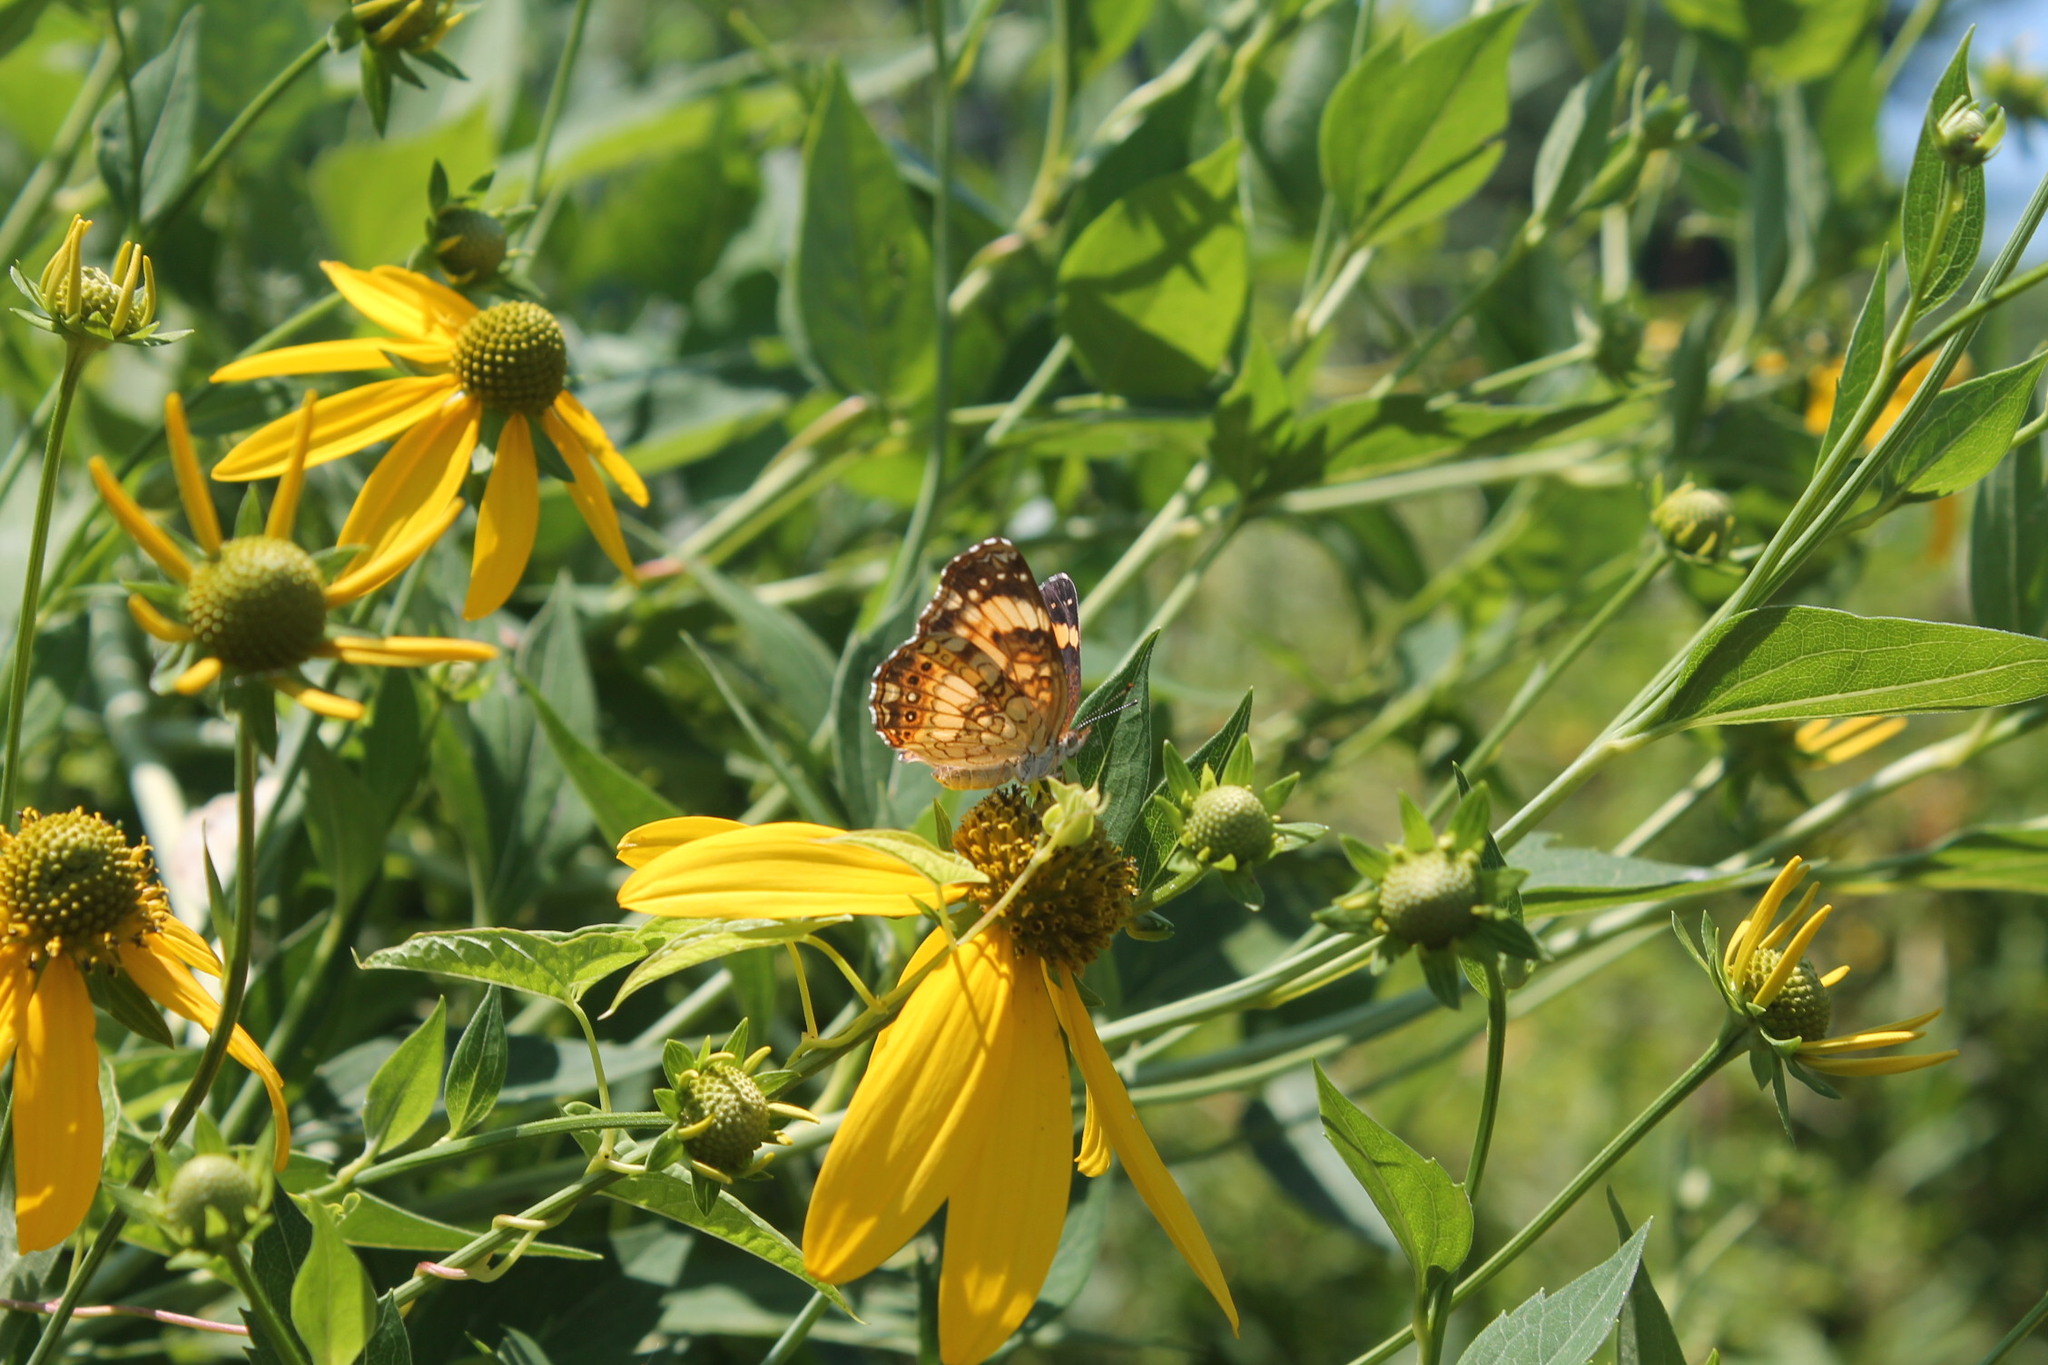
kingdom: Animalia
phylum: Arthropoda
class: Insecta
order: Lepidoptera
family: Nymphalidae
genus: Chlosyne
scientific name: Chlosyne nycteis
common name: Silvery checkerspot
